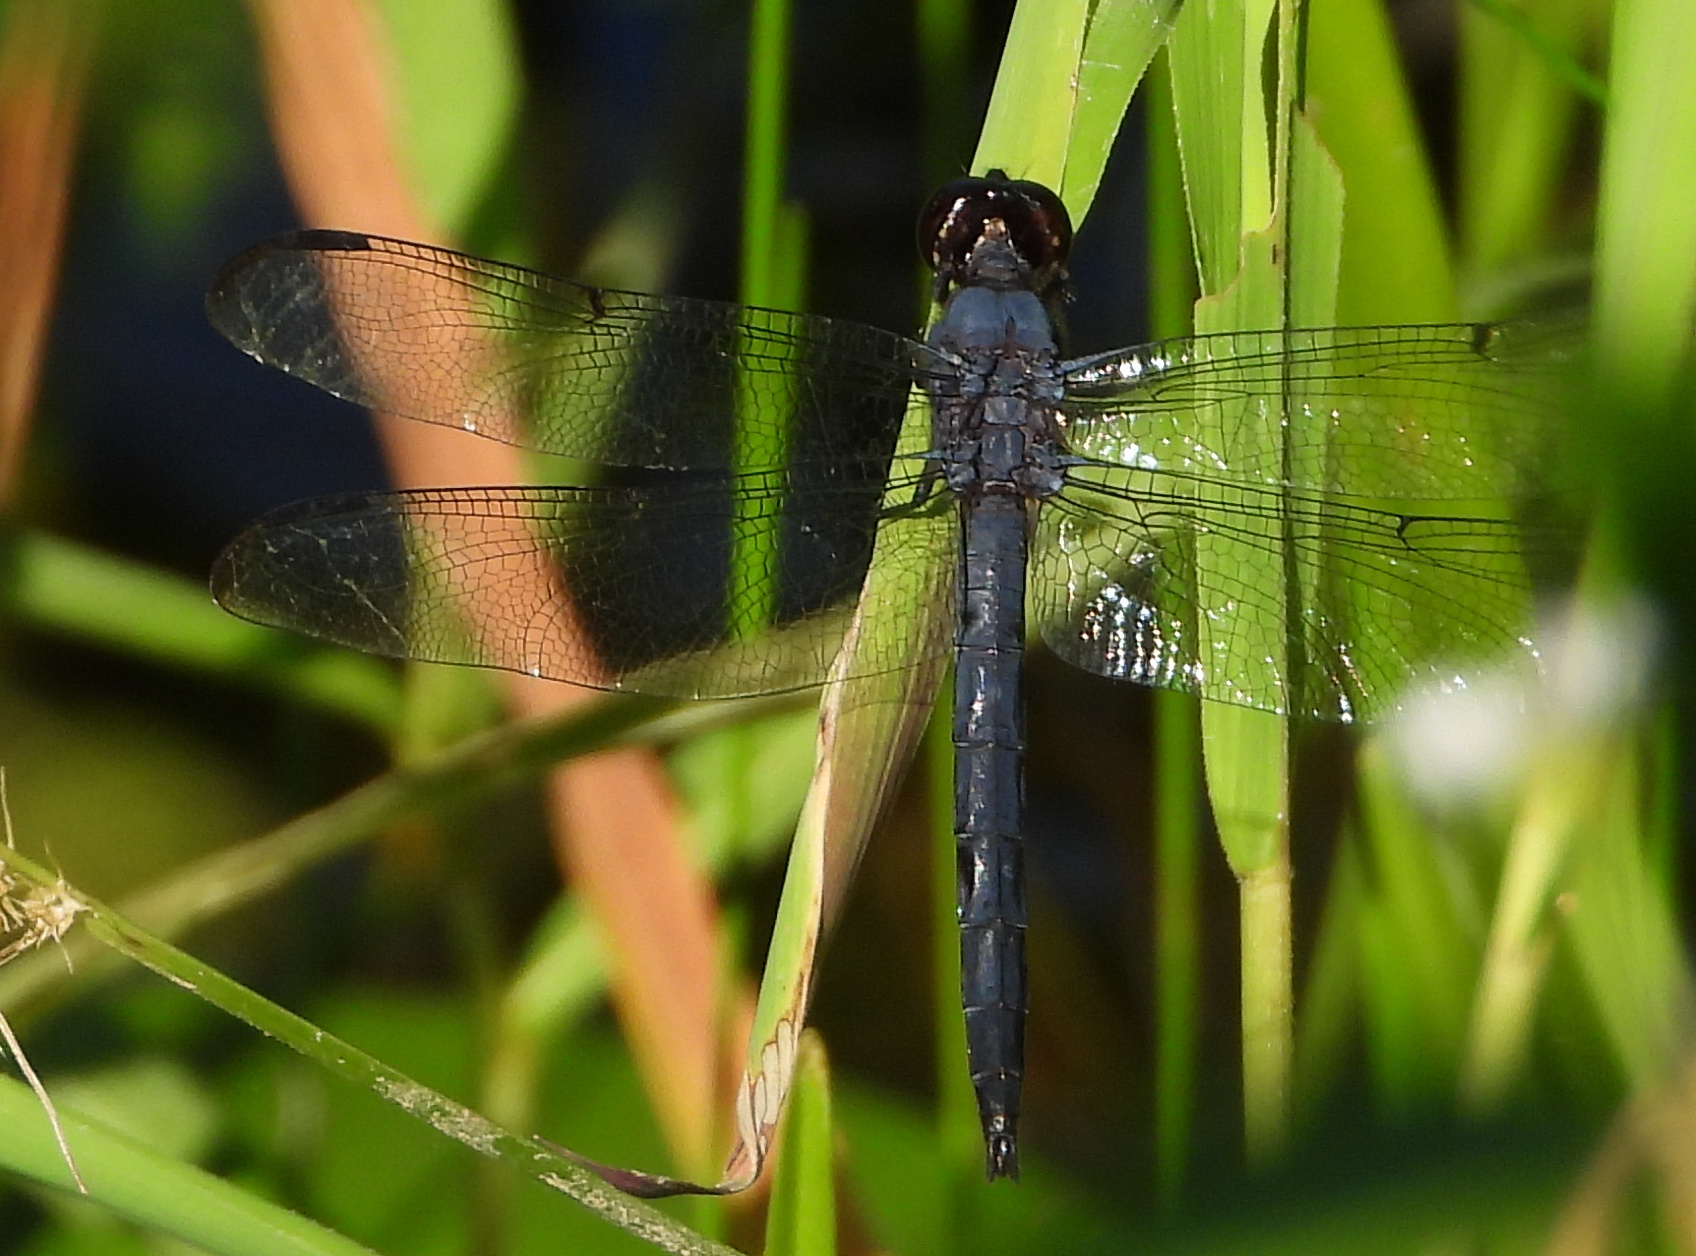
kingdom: Animalia
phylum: Arthropoda
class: Insecta
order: Odonata
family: Libellulidae
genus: Libellula
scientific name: Libellula incesta
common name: Slaty skimmer
